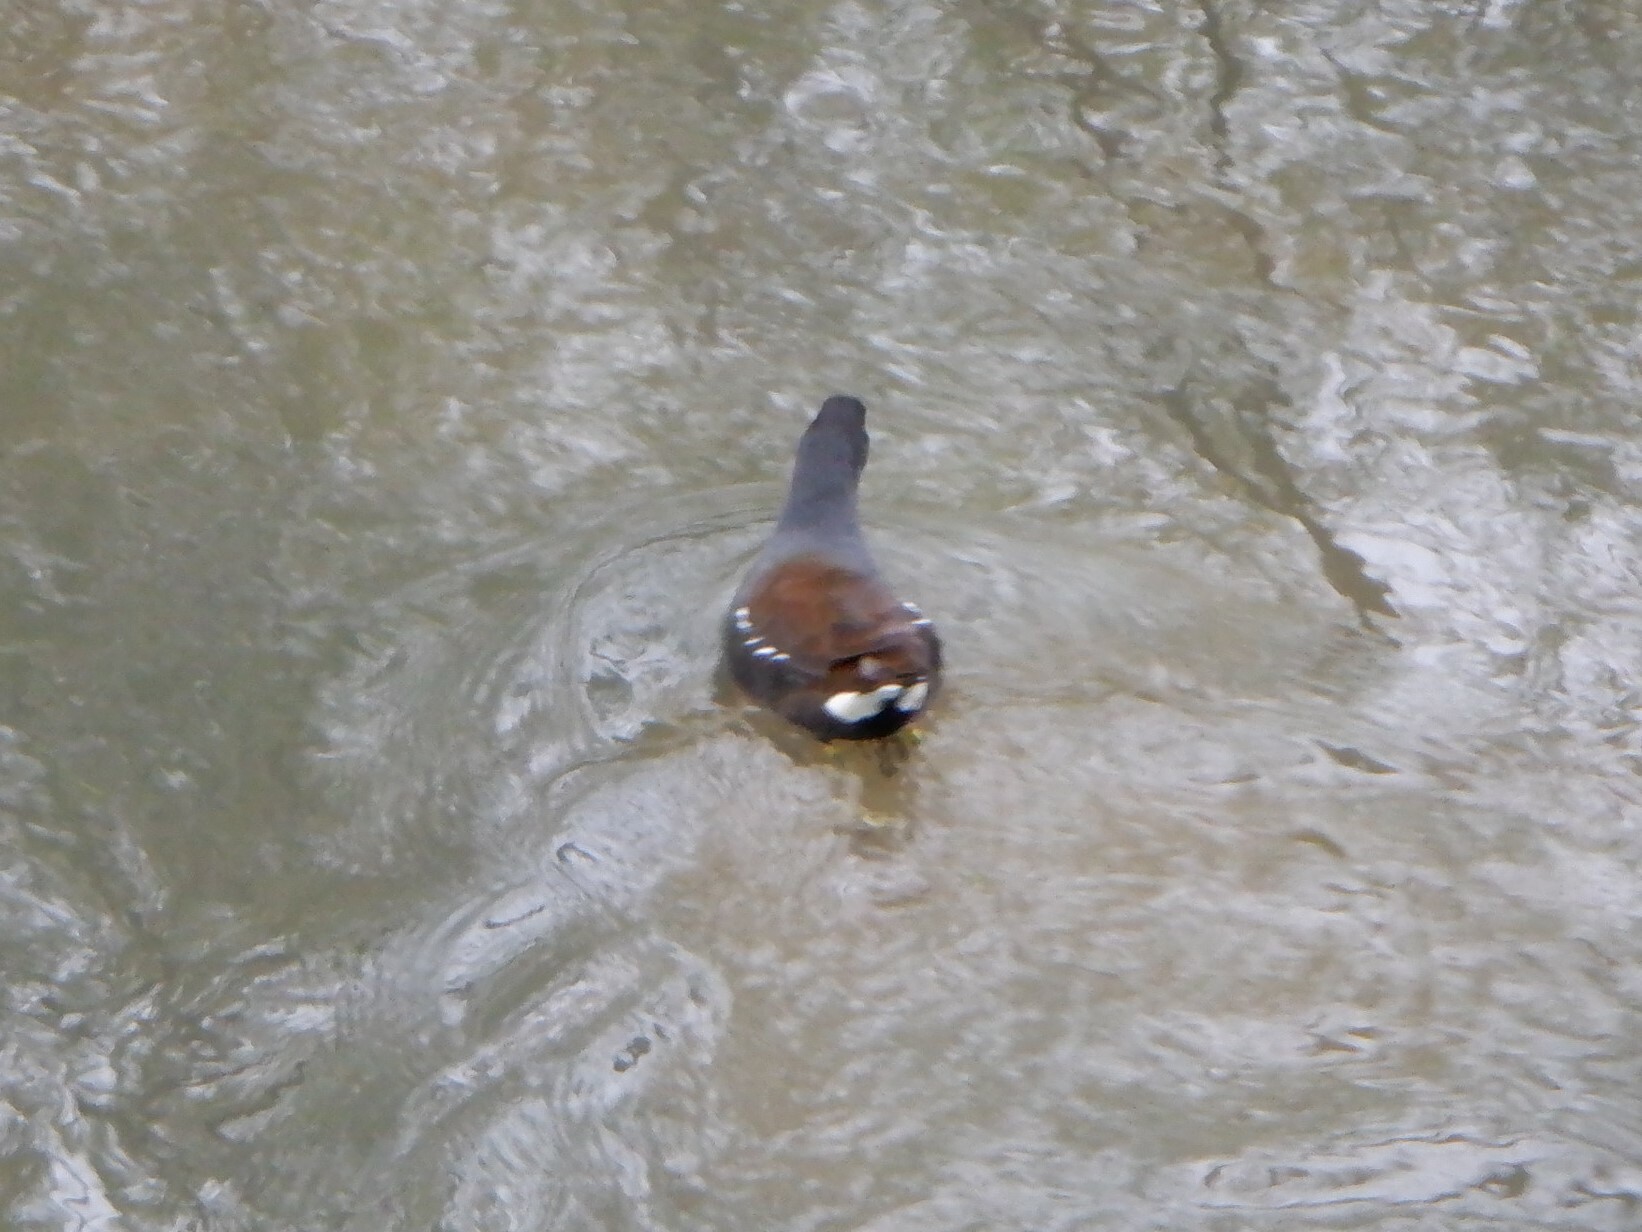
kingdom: Animalia
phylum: Chordata
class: Aves
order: Gruiformes
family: Rallidae
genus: Gallinula
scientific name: Gallinula chloropus
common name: Common moorhen
